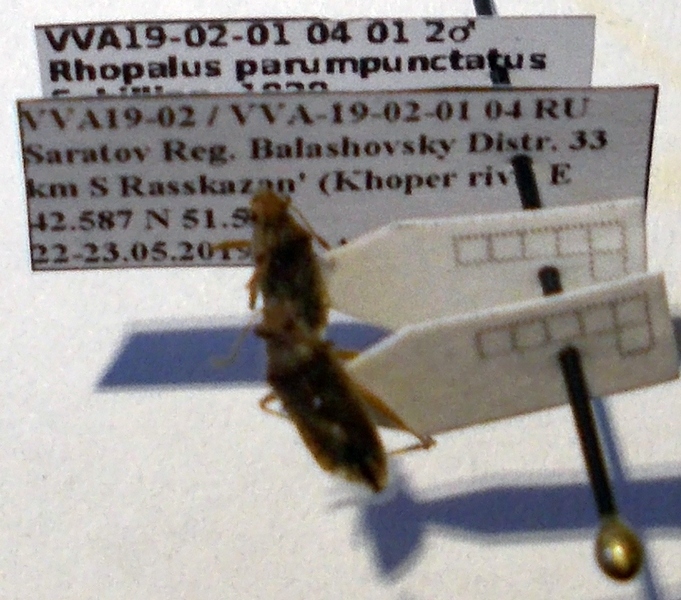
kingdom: Animalia
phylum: Arthropoda
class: Insecta
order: Hemiptera
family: Rhopalidae
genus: Rhopalus
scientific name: Rhopalus parumpunctatus
